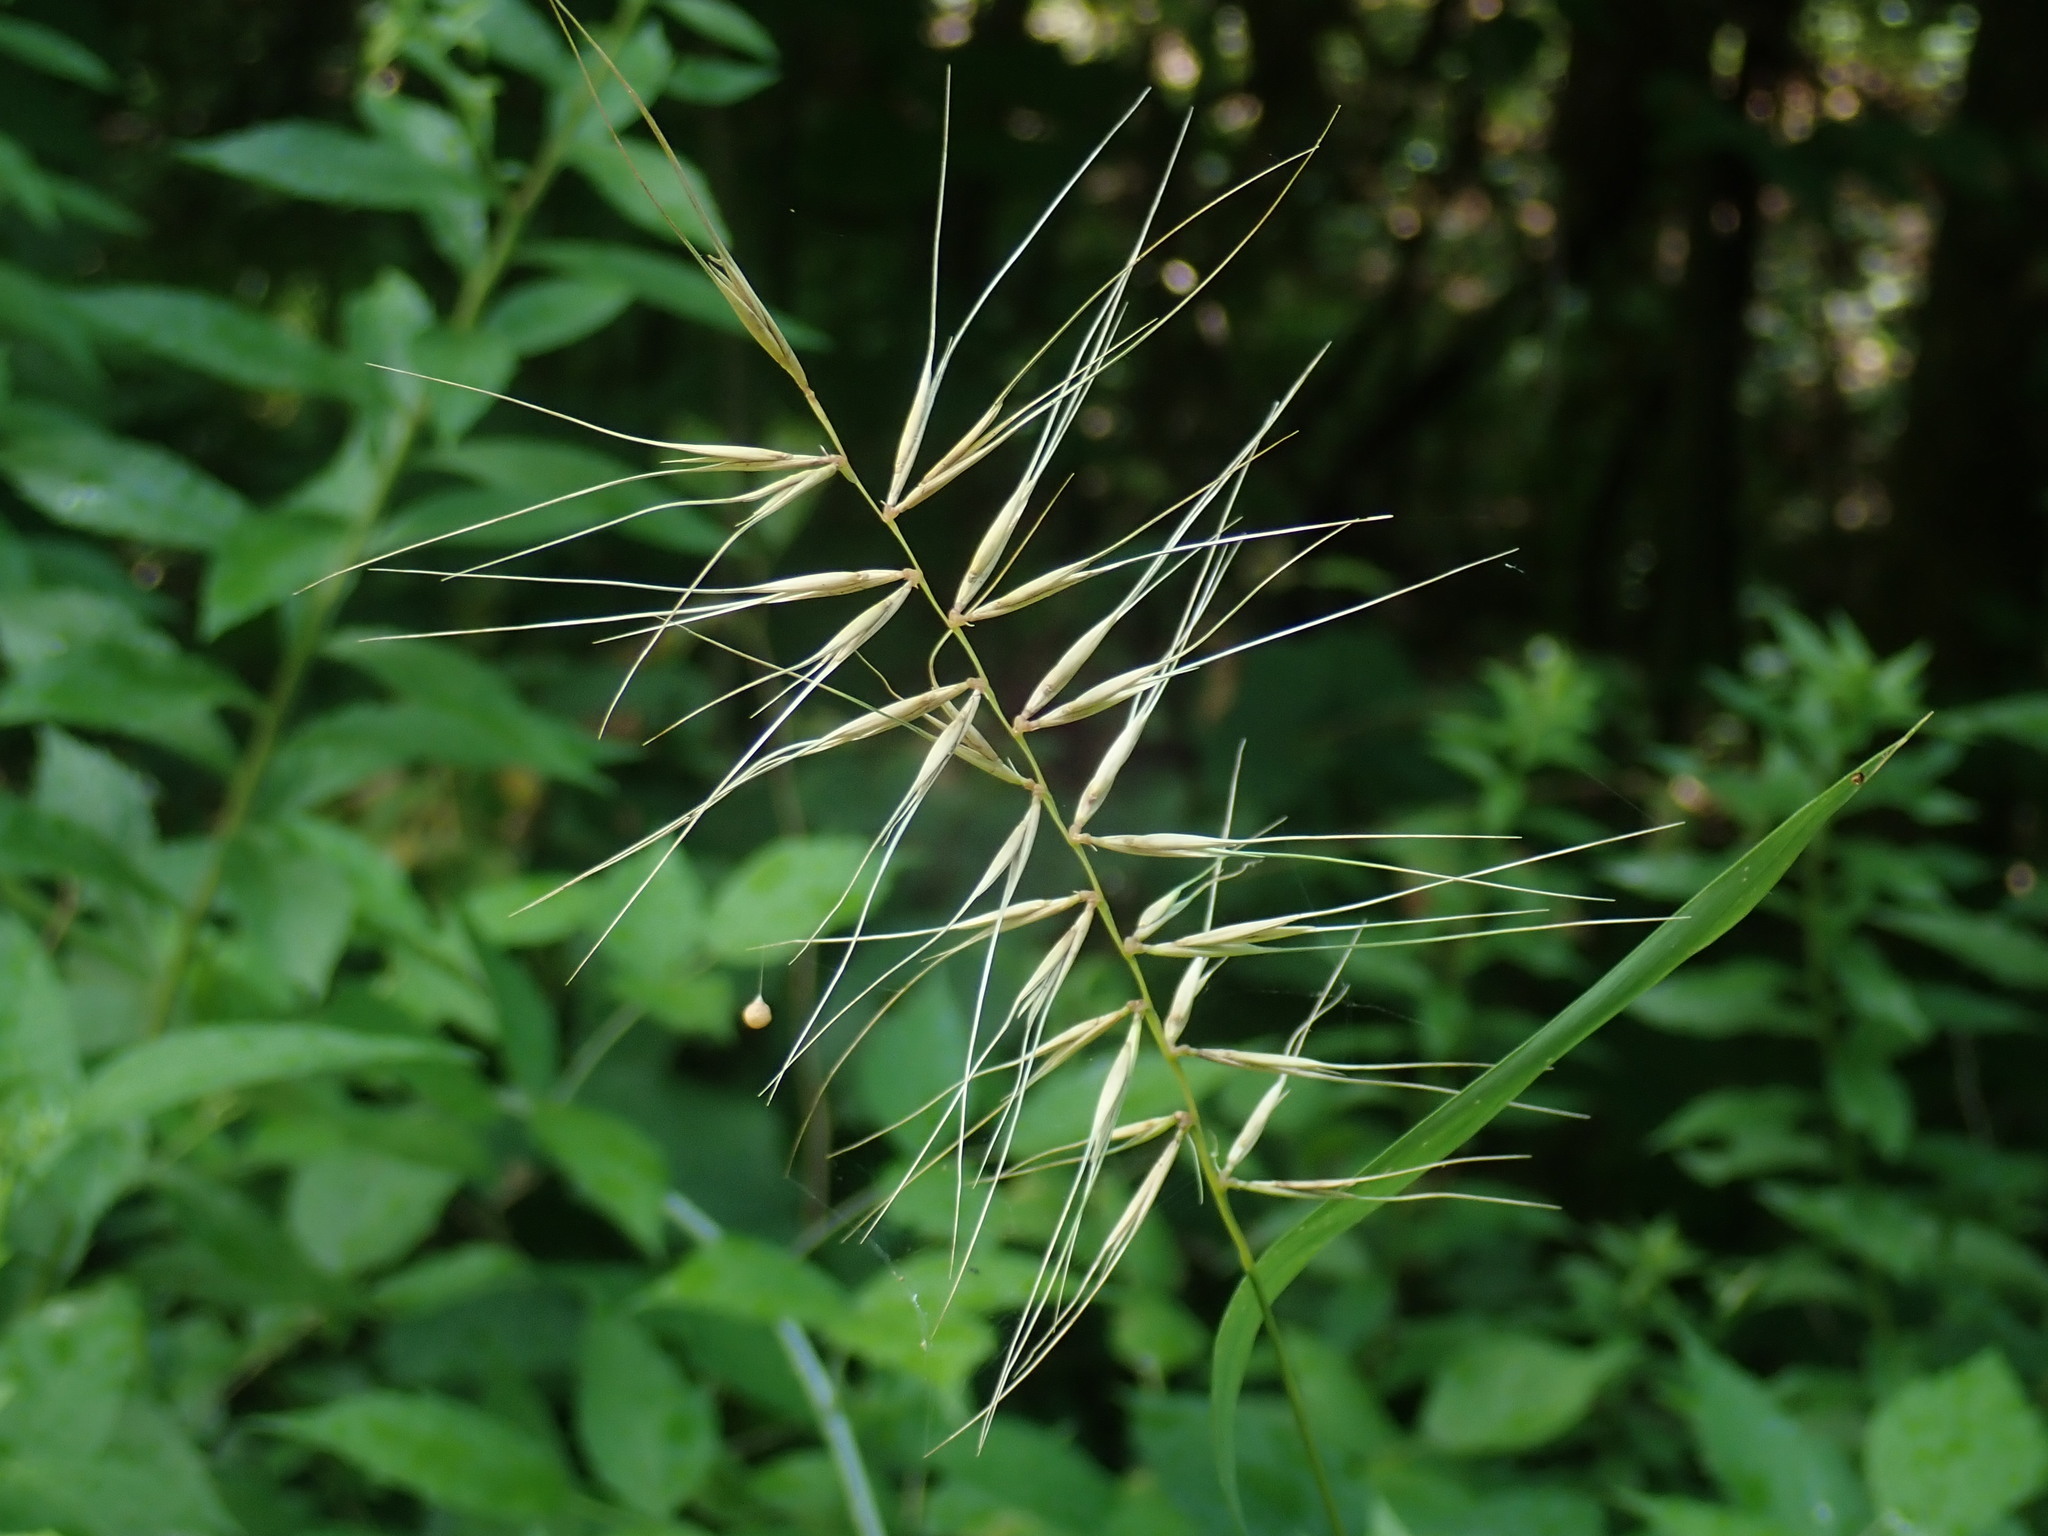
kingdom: Plantae
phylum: Tracheophyta
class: Liliopsida
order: Poales
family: Poaceae
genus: Elymus
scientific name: Elymus hystrix
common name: Bottlebrush grass
